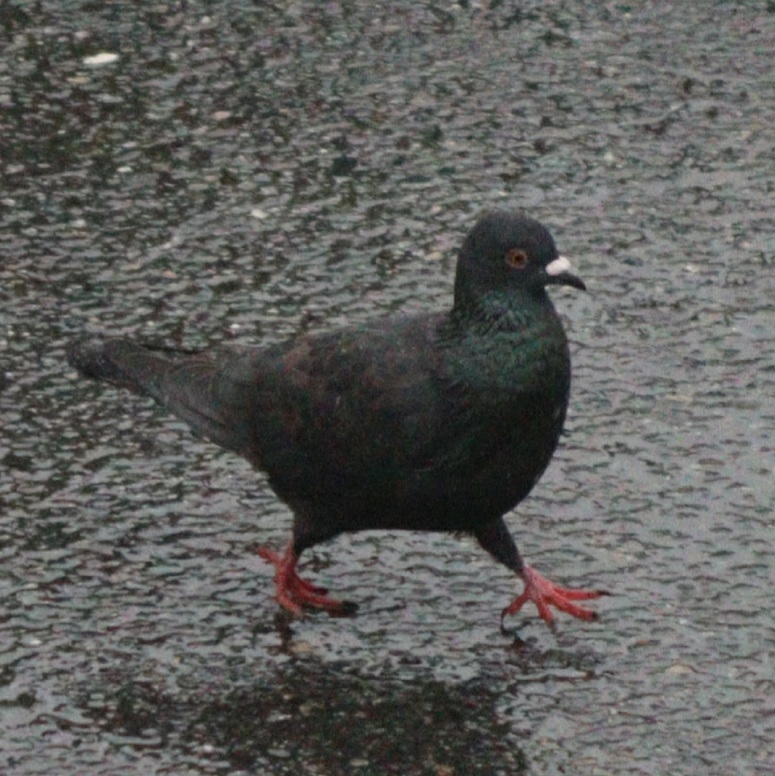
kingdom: Animalia
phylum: Chordata
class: Aves
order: Columbiformes
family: Columbidae
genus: Columba
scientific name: Columba livia
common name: Rock pigeon
